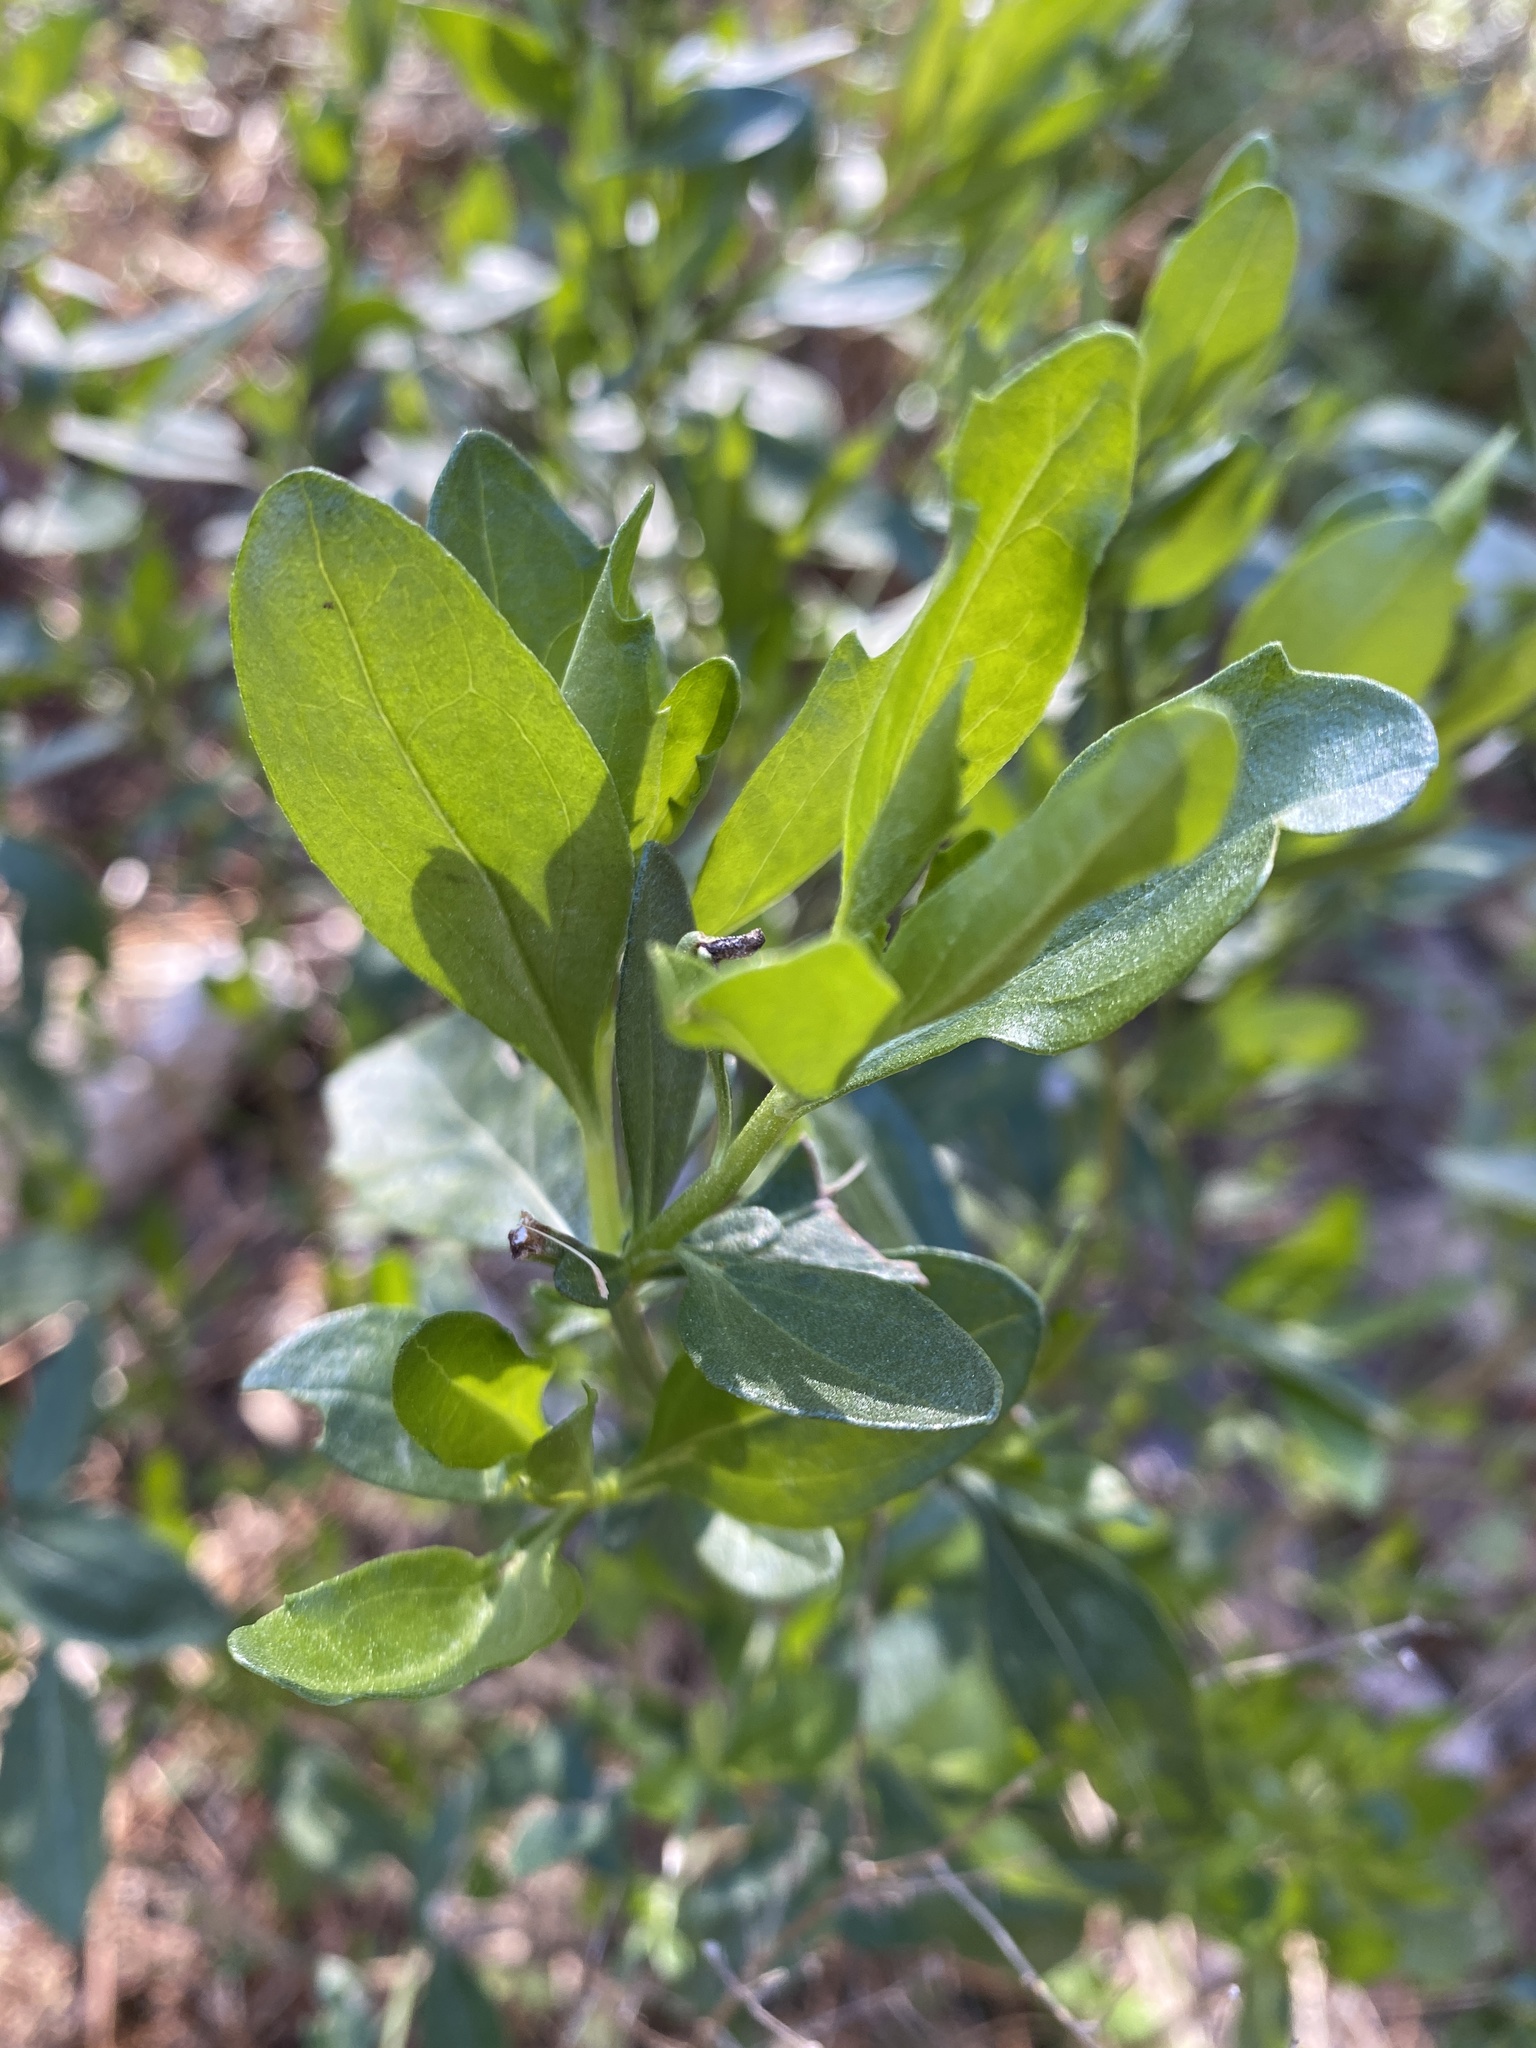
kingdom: Plantae
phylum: Tracheophyta
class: Magnoliopsida
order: Asterales
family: Asteraceae
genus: Baccharis
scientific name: Baccharis halimifolia
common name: Eastern baccharis
